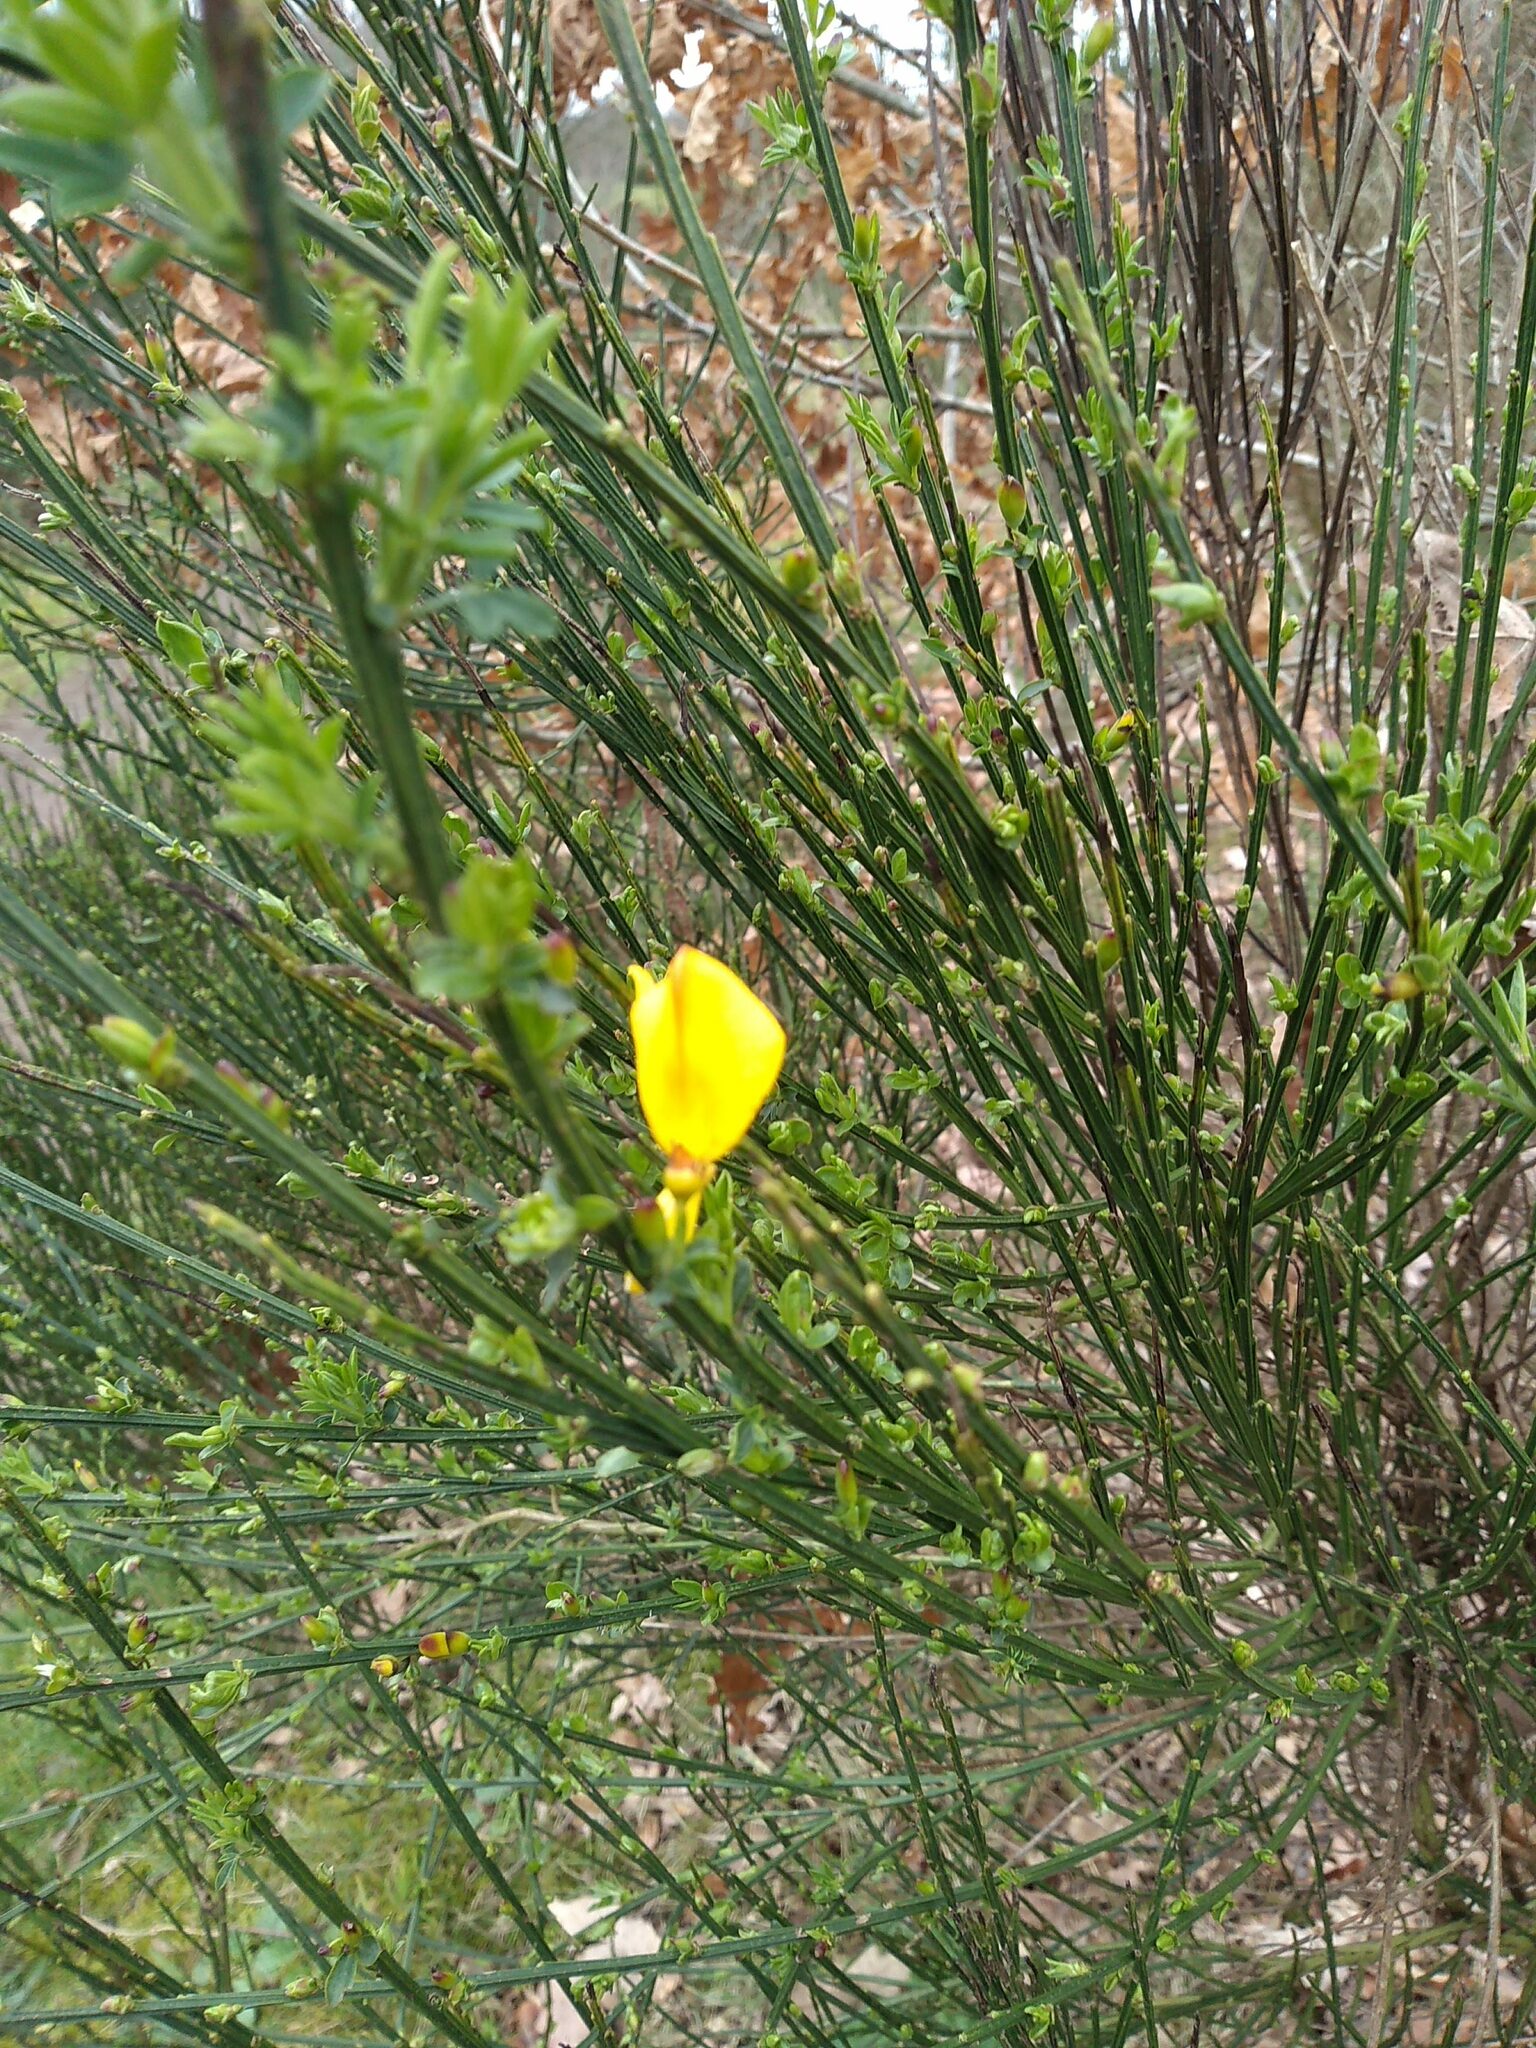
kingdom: Plantae
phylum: Tracheophyta
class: Magnoliopsida
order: Fabales
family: Fabaceae
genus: Cytisus
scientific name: Cytisus scoparius
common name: Scotch broom
